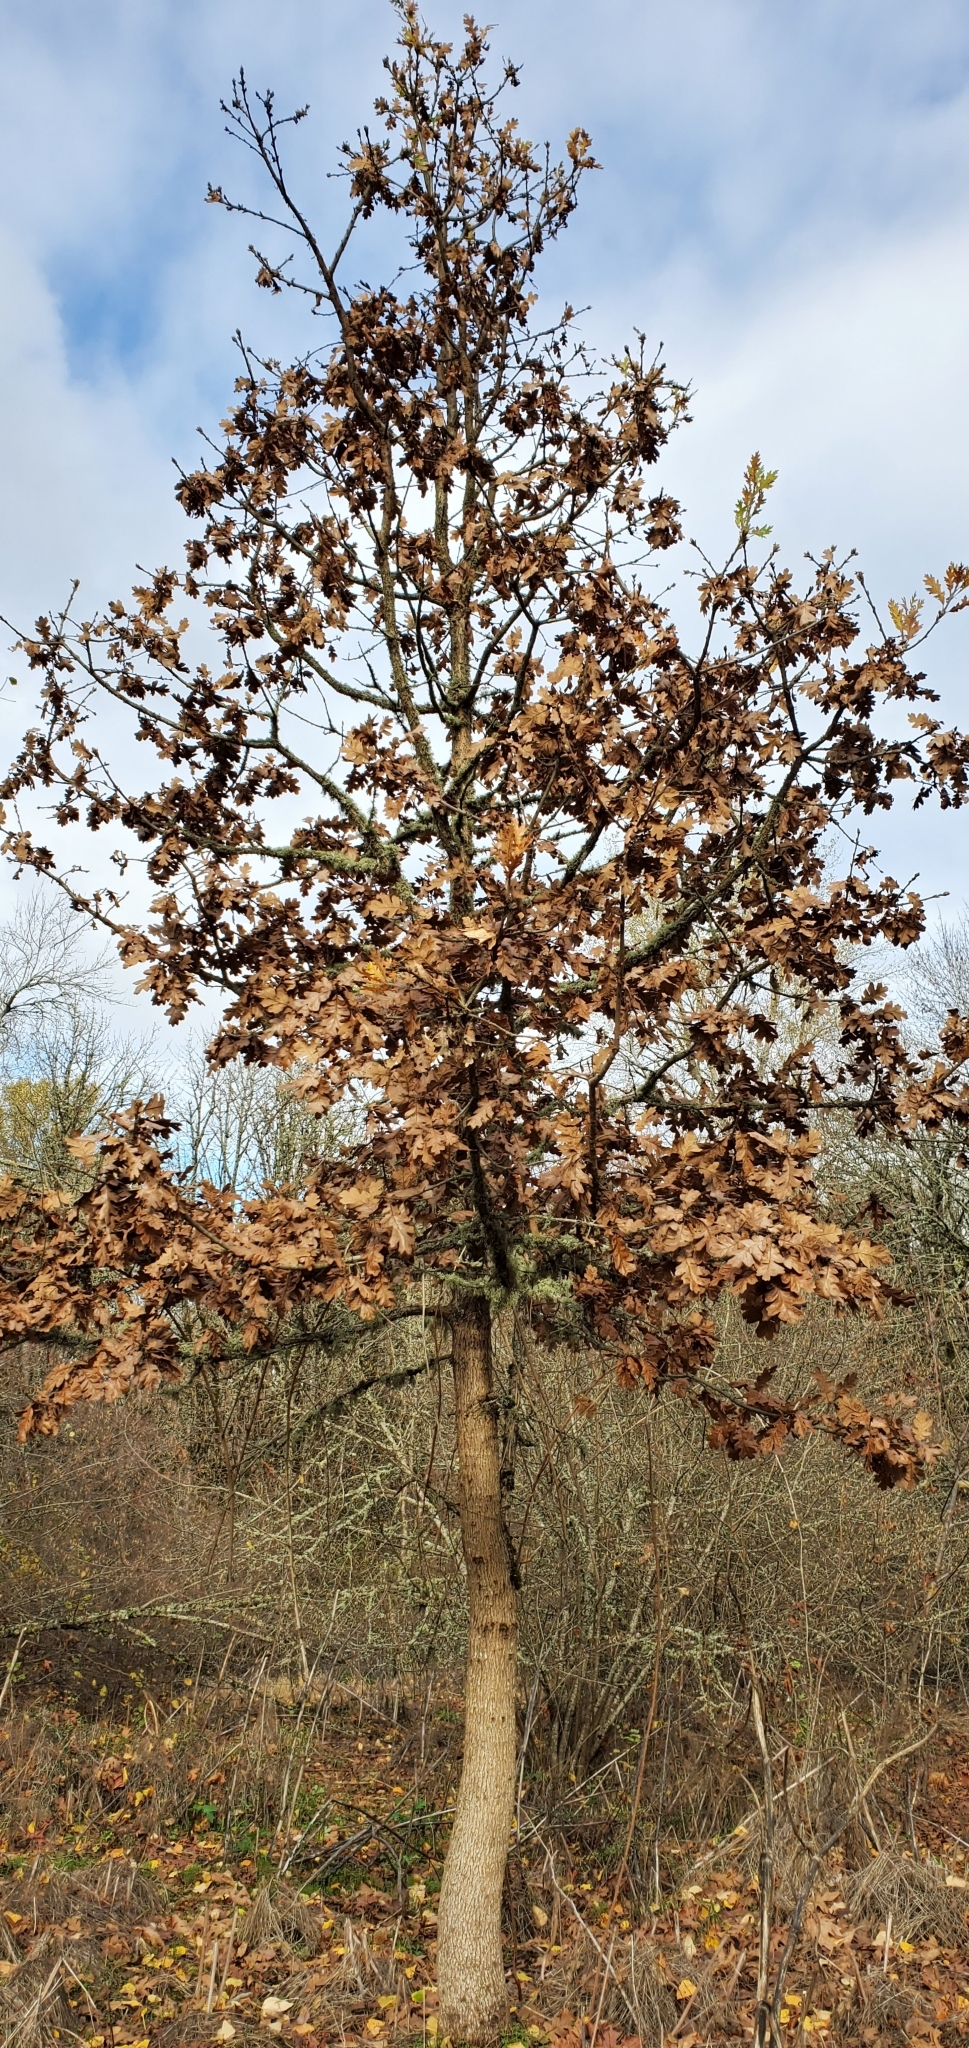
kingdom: Plantae
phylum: Tracheophyta
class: Magnoliopsida
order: Fagales
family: Fagaceae
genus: Quercus
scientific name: Quercus garryana
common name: Garry oak
